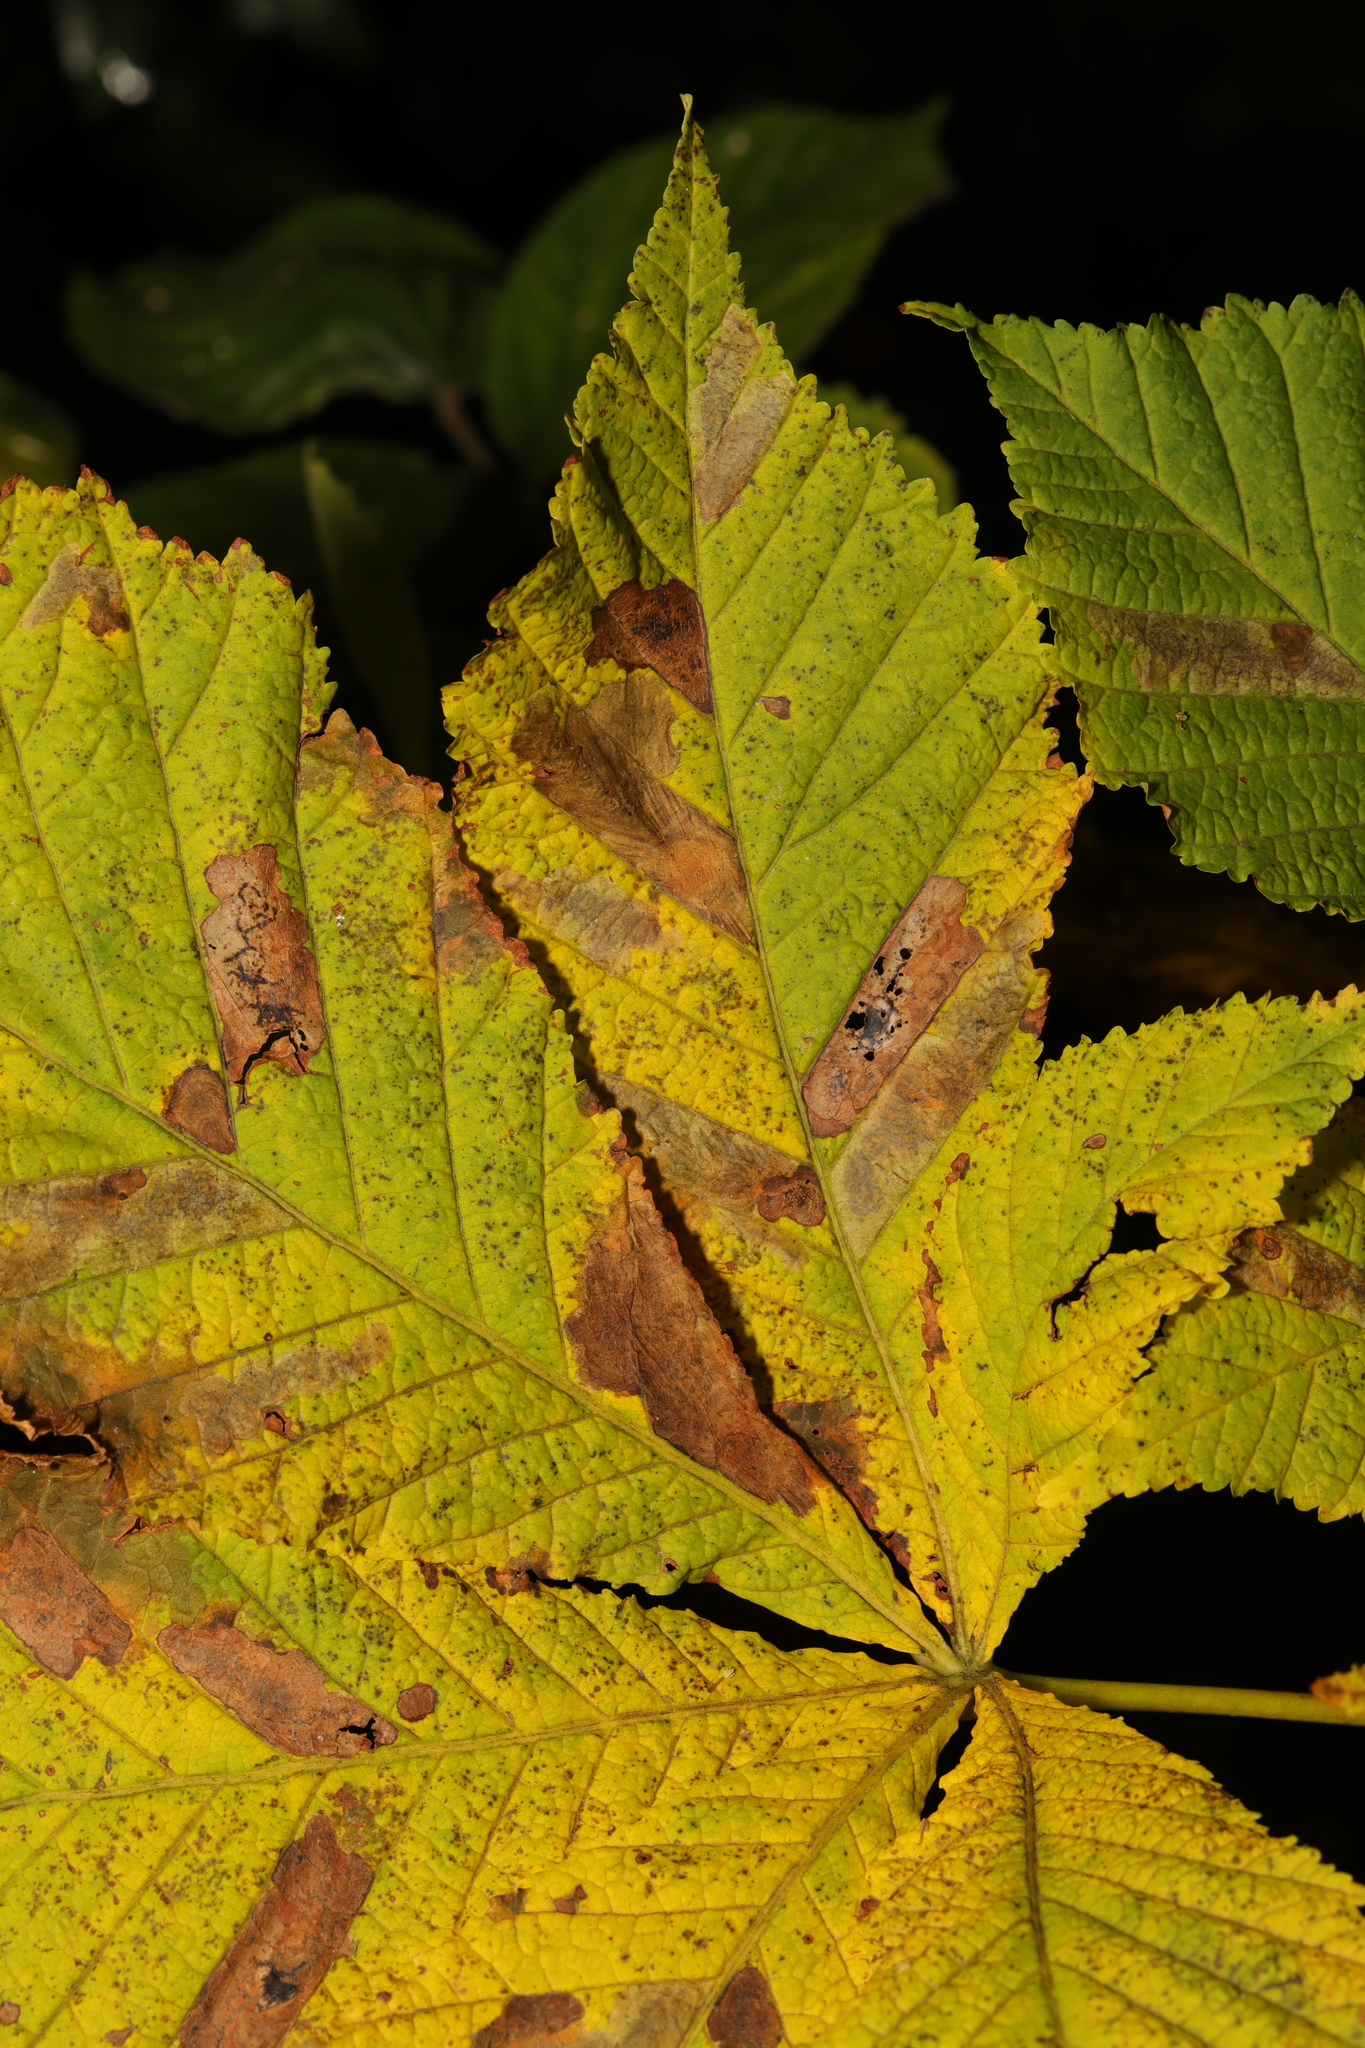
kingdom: Animalia
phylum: Arthropoda
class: Insecta
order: Lepidoptera
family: Gracillariidae
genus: Cameraria
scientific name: Cameraria ohridella
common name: Horse-chestnut leaf-miner
